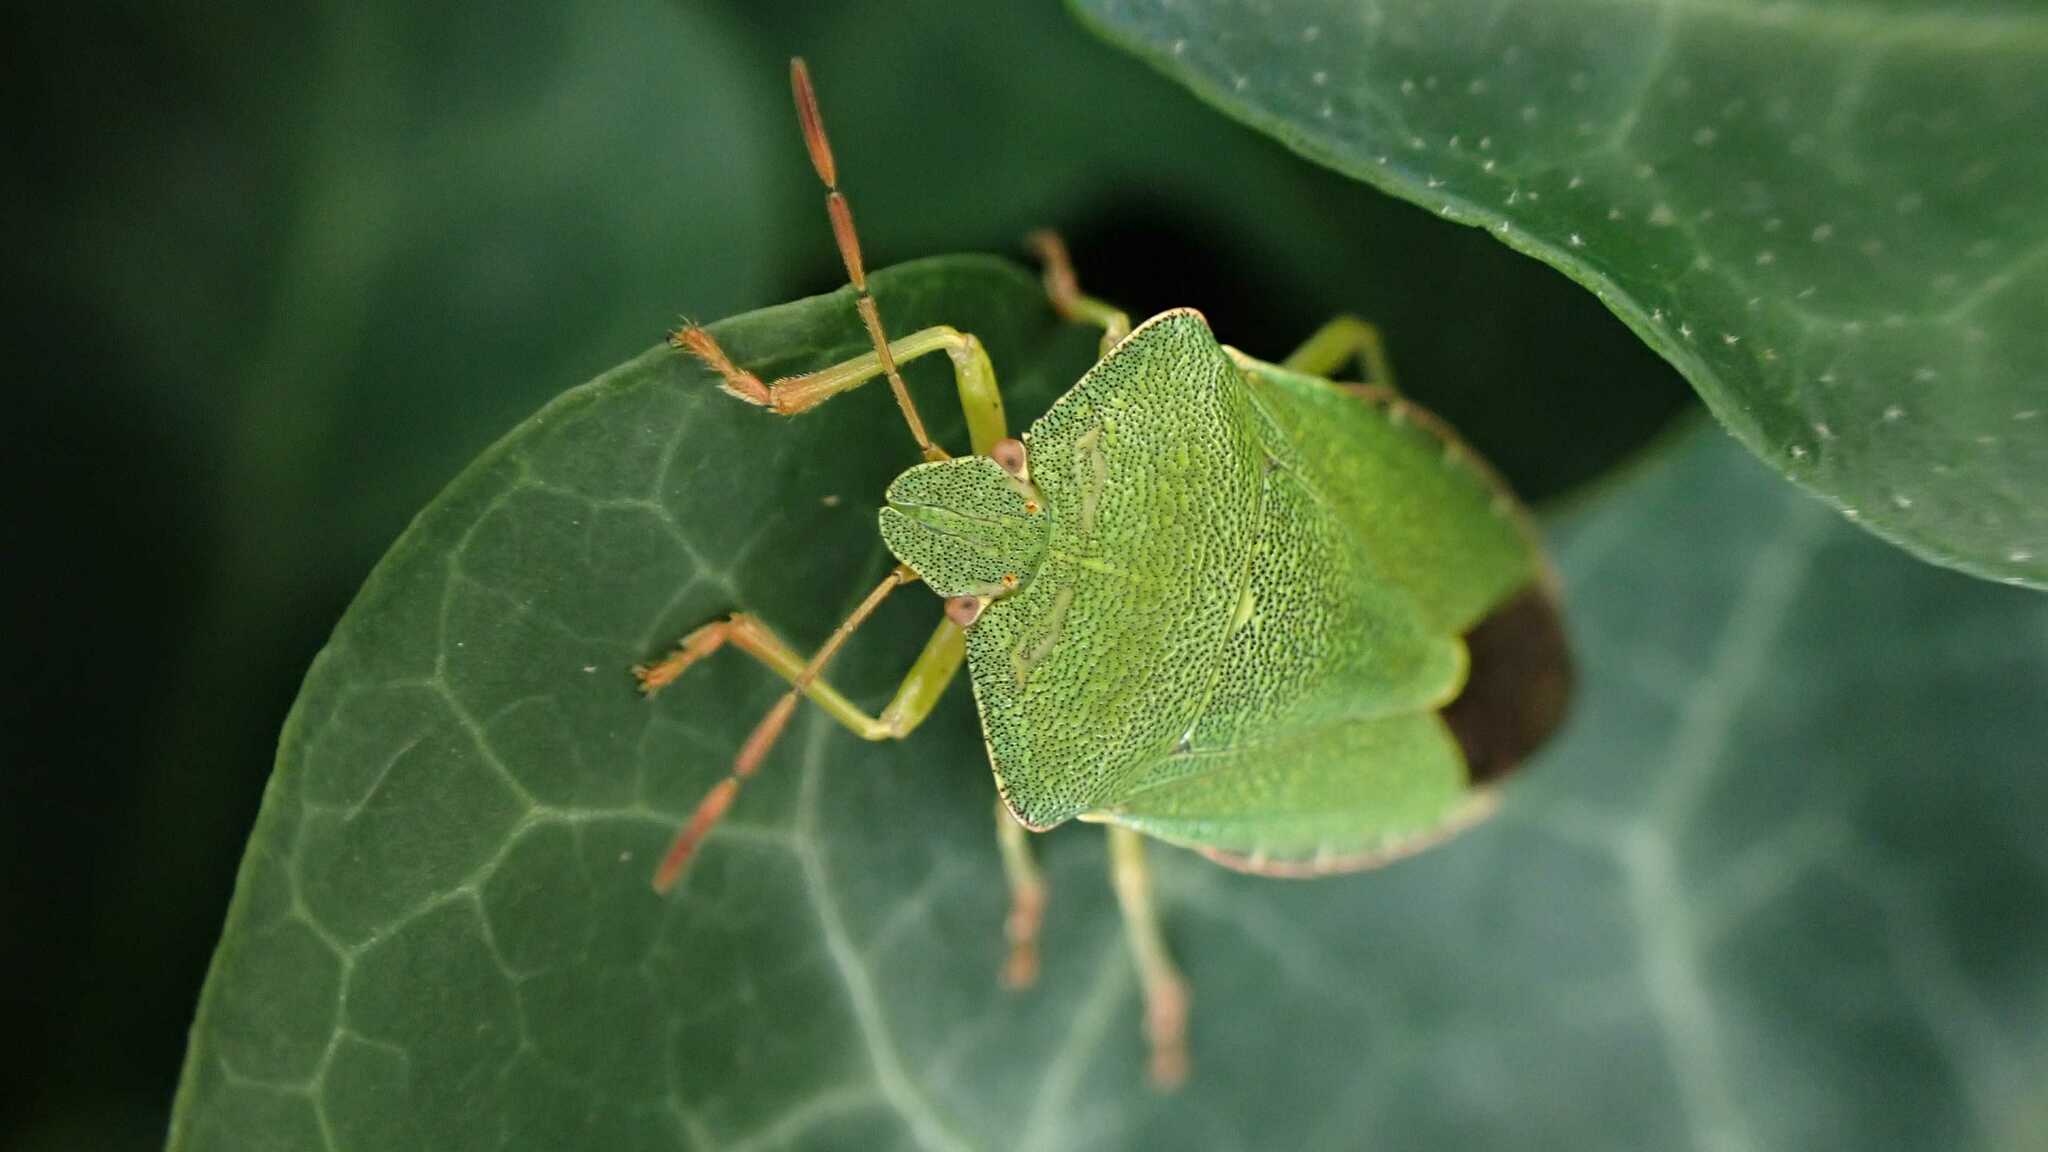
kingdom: Animalia
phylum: Arthropoda
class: Insecta
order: Hemiptera
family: Pentatomidae
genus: Palomena
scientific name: Palomena prasina
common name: Green shieldbug
